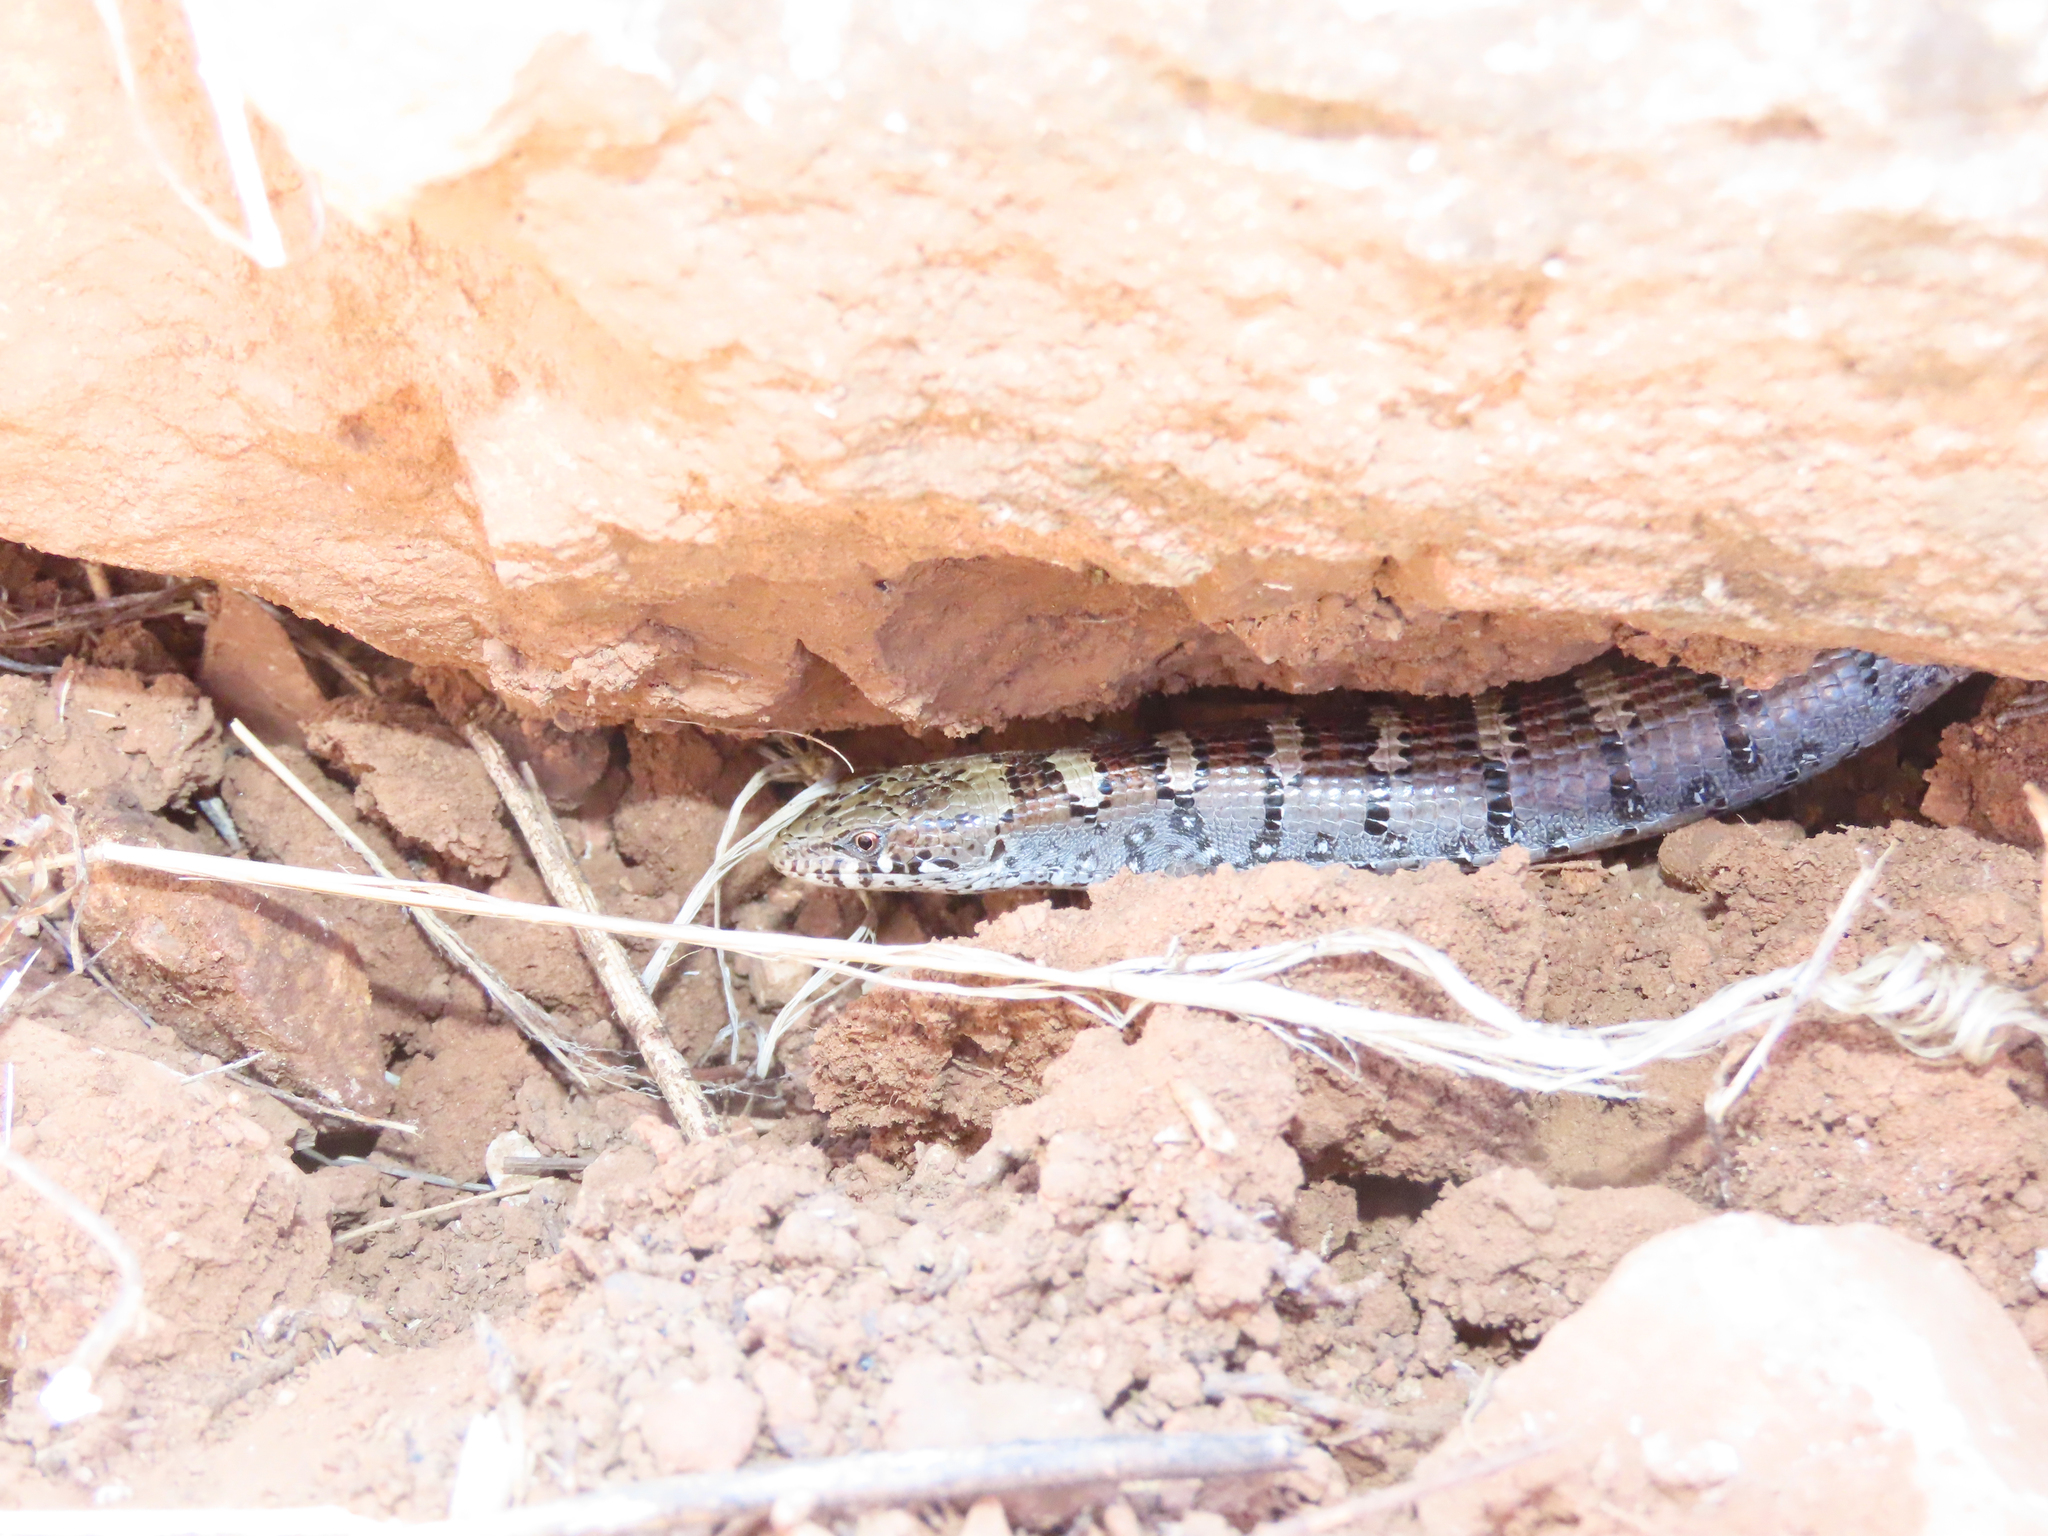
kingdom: Animalia
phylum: Chordata
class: Squamata
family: Anguidae
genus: Elgaria
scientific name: Elgaria kingii
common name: Madrean alligator lizard
